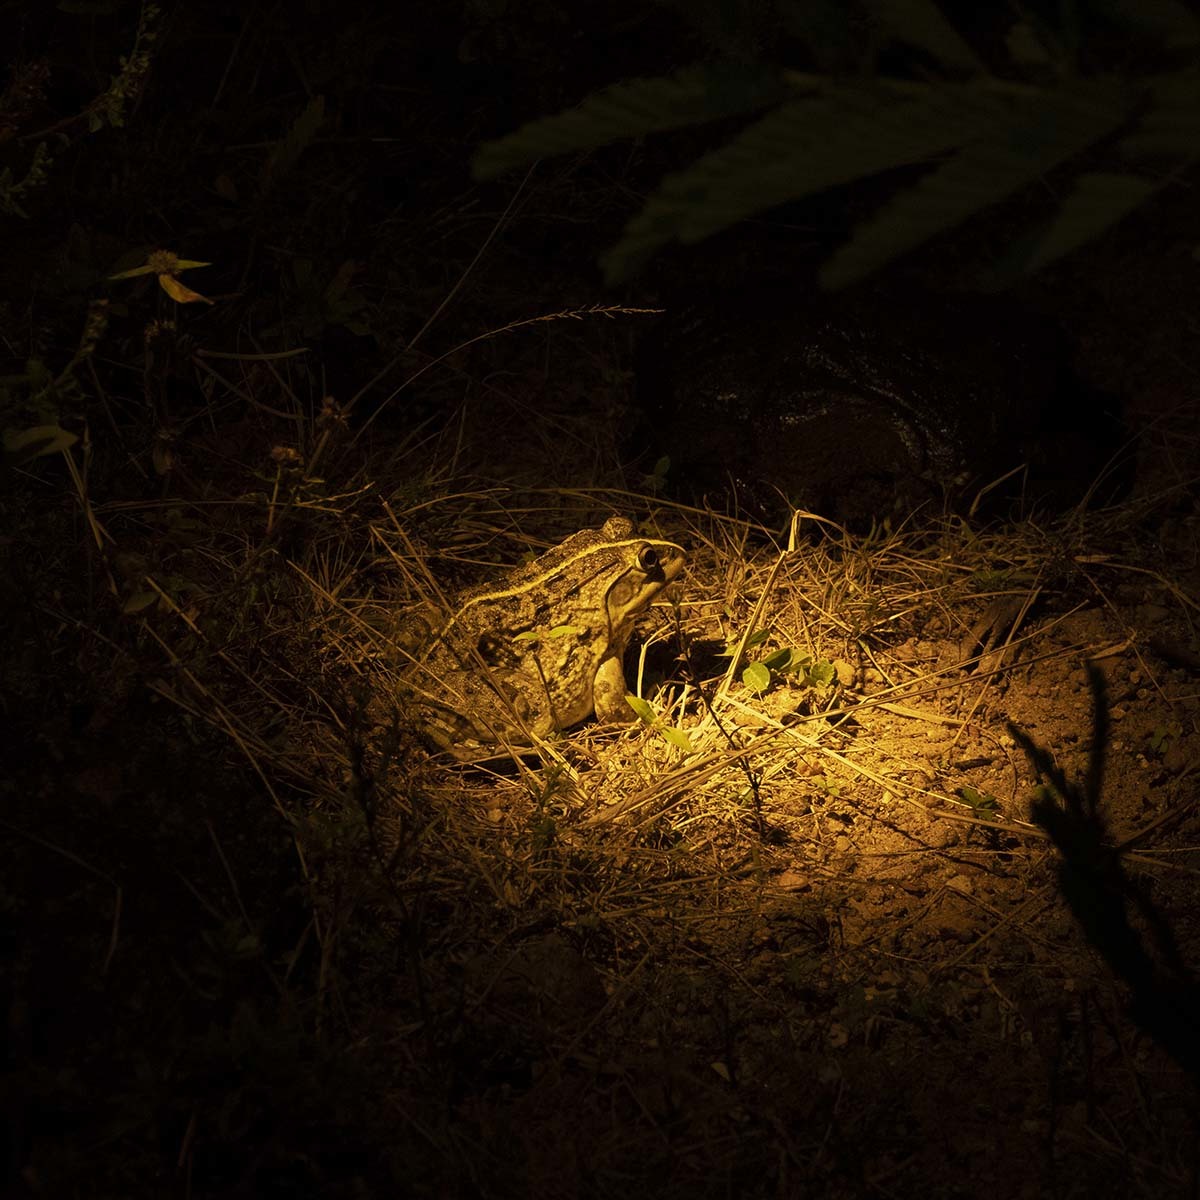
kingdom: Animalia
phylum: Chordata
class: Amphibia
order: Anura
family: Dicroglossidae
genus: Hoplobatrachus
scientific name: Hoplobatrachus tigerinus
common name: Indian bullfrog
